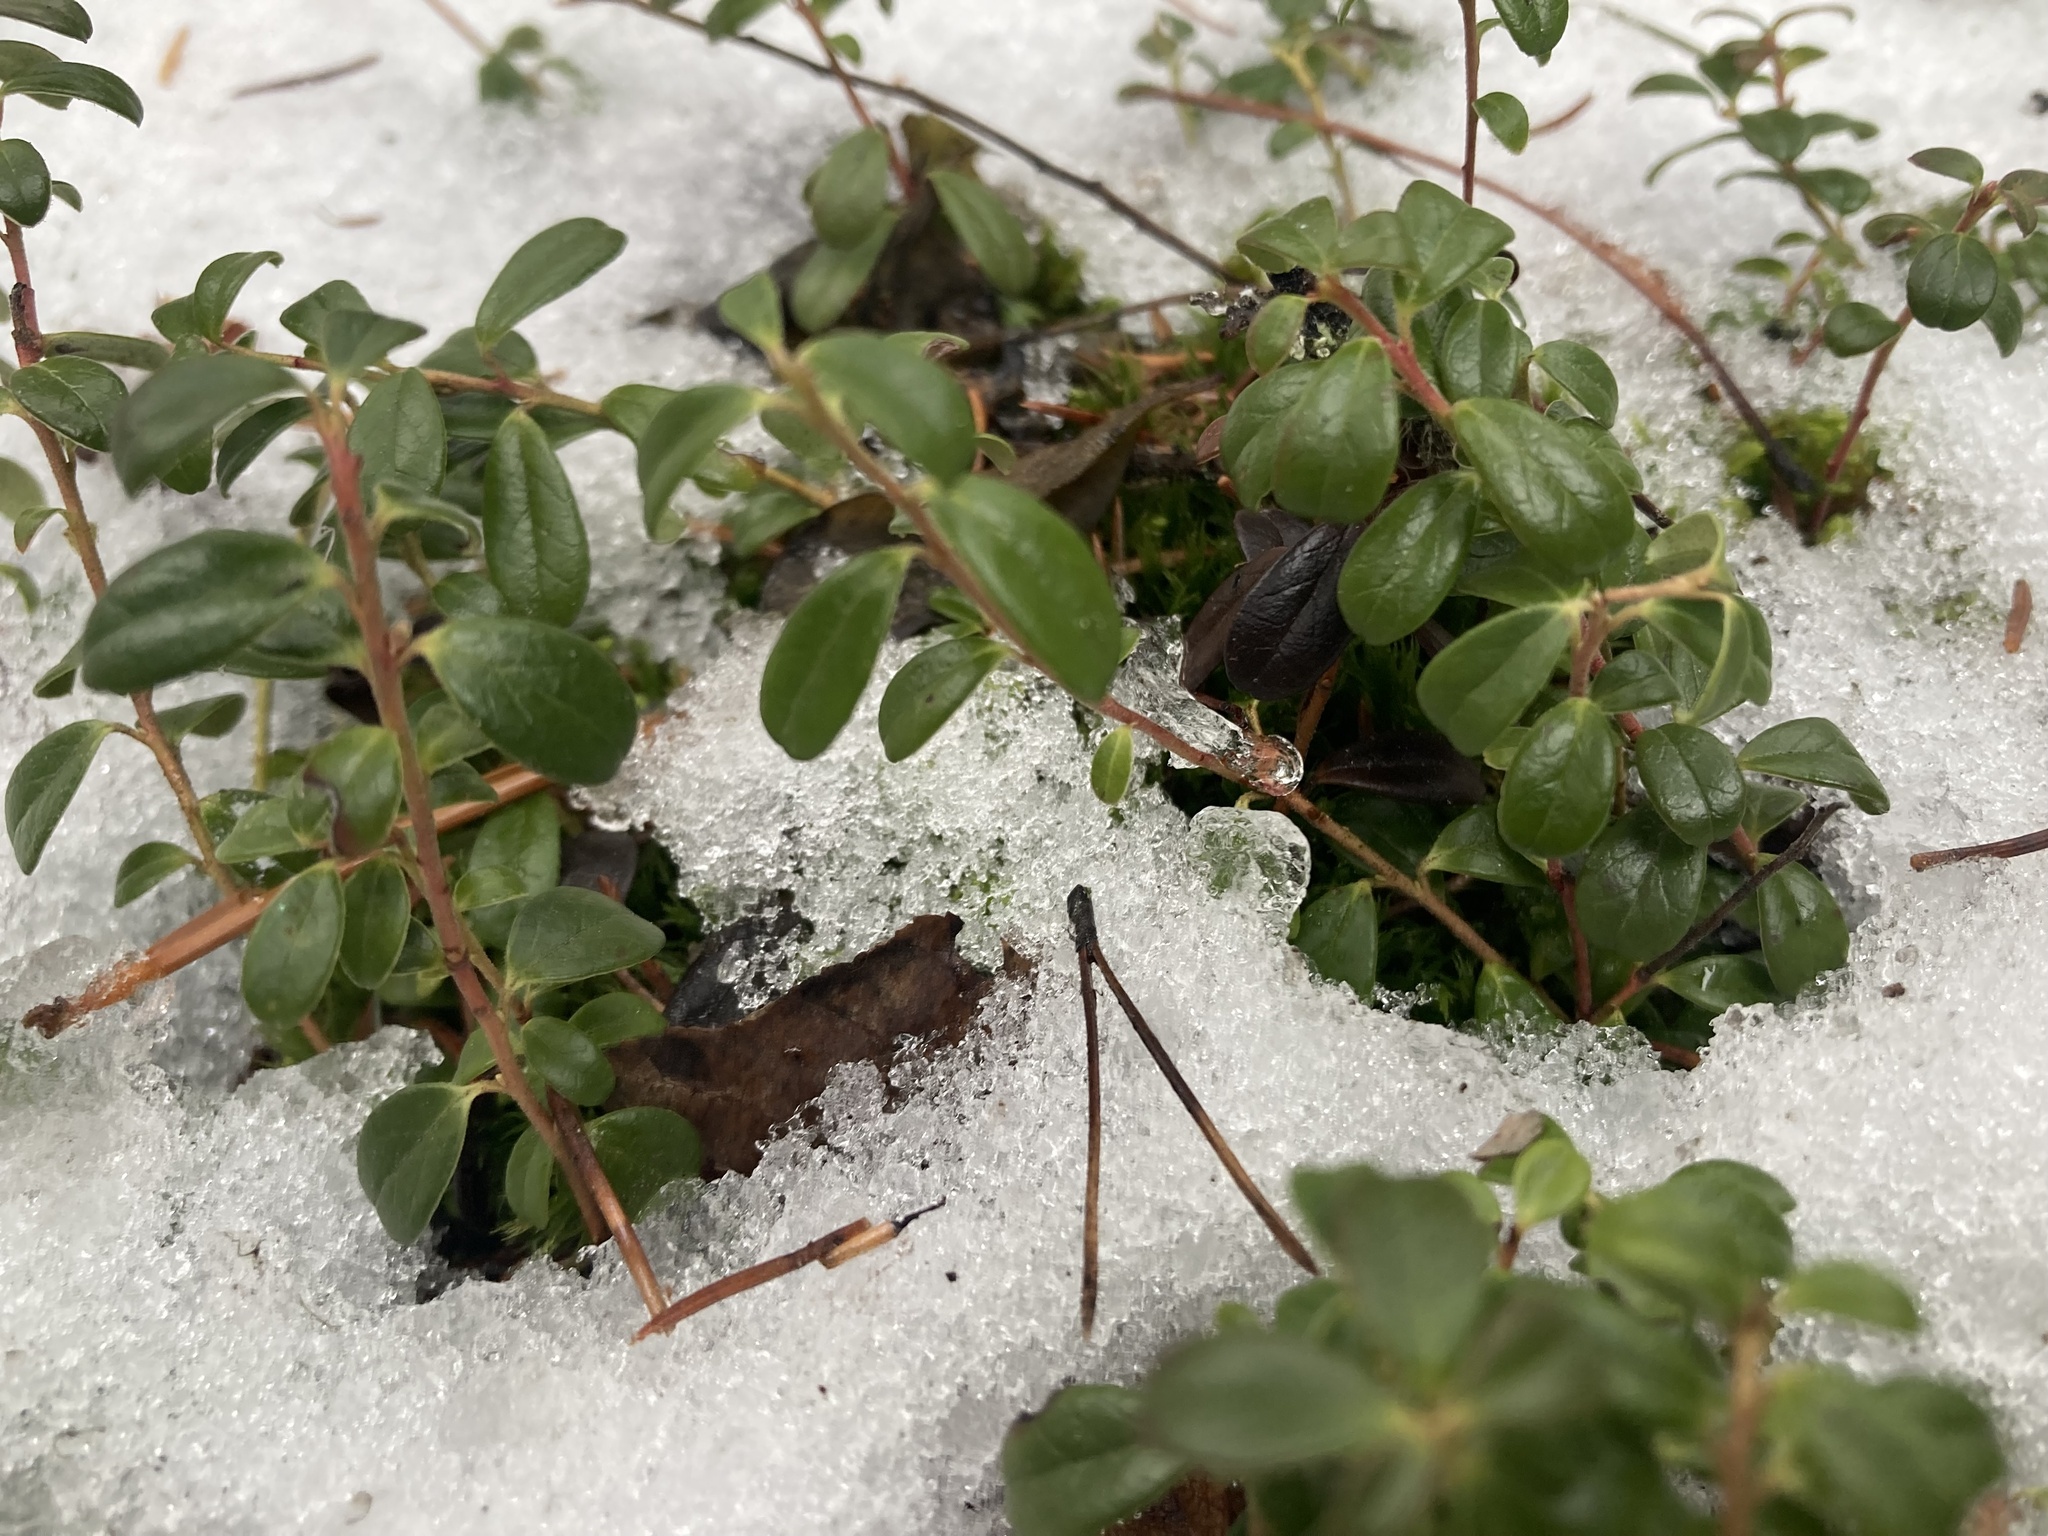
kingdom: Plantae
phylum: Tracheophyta
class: Magnoliopsida
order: Ericales
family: Ericaceae
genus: Vaccinium
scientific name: Vaccinium vitis-idaea
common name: Cowberry
